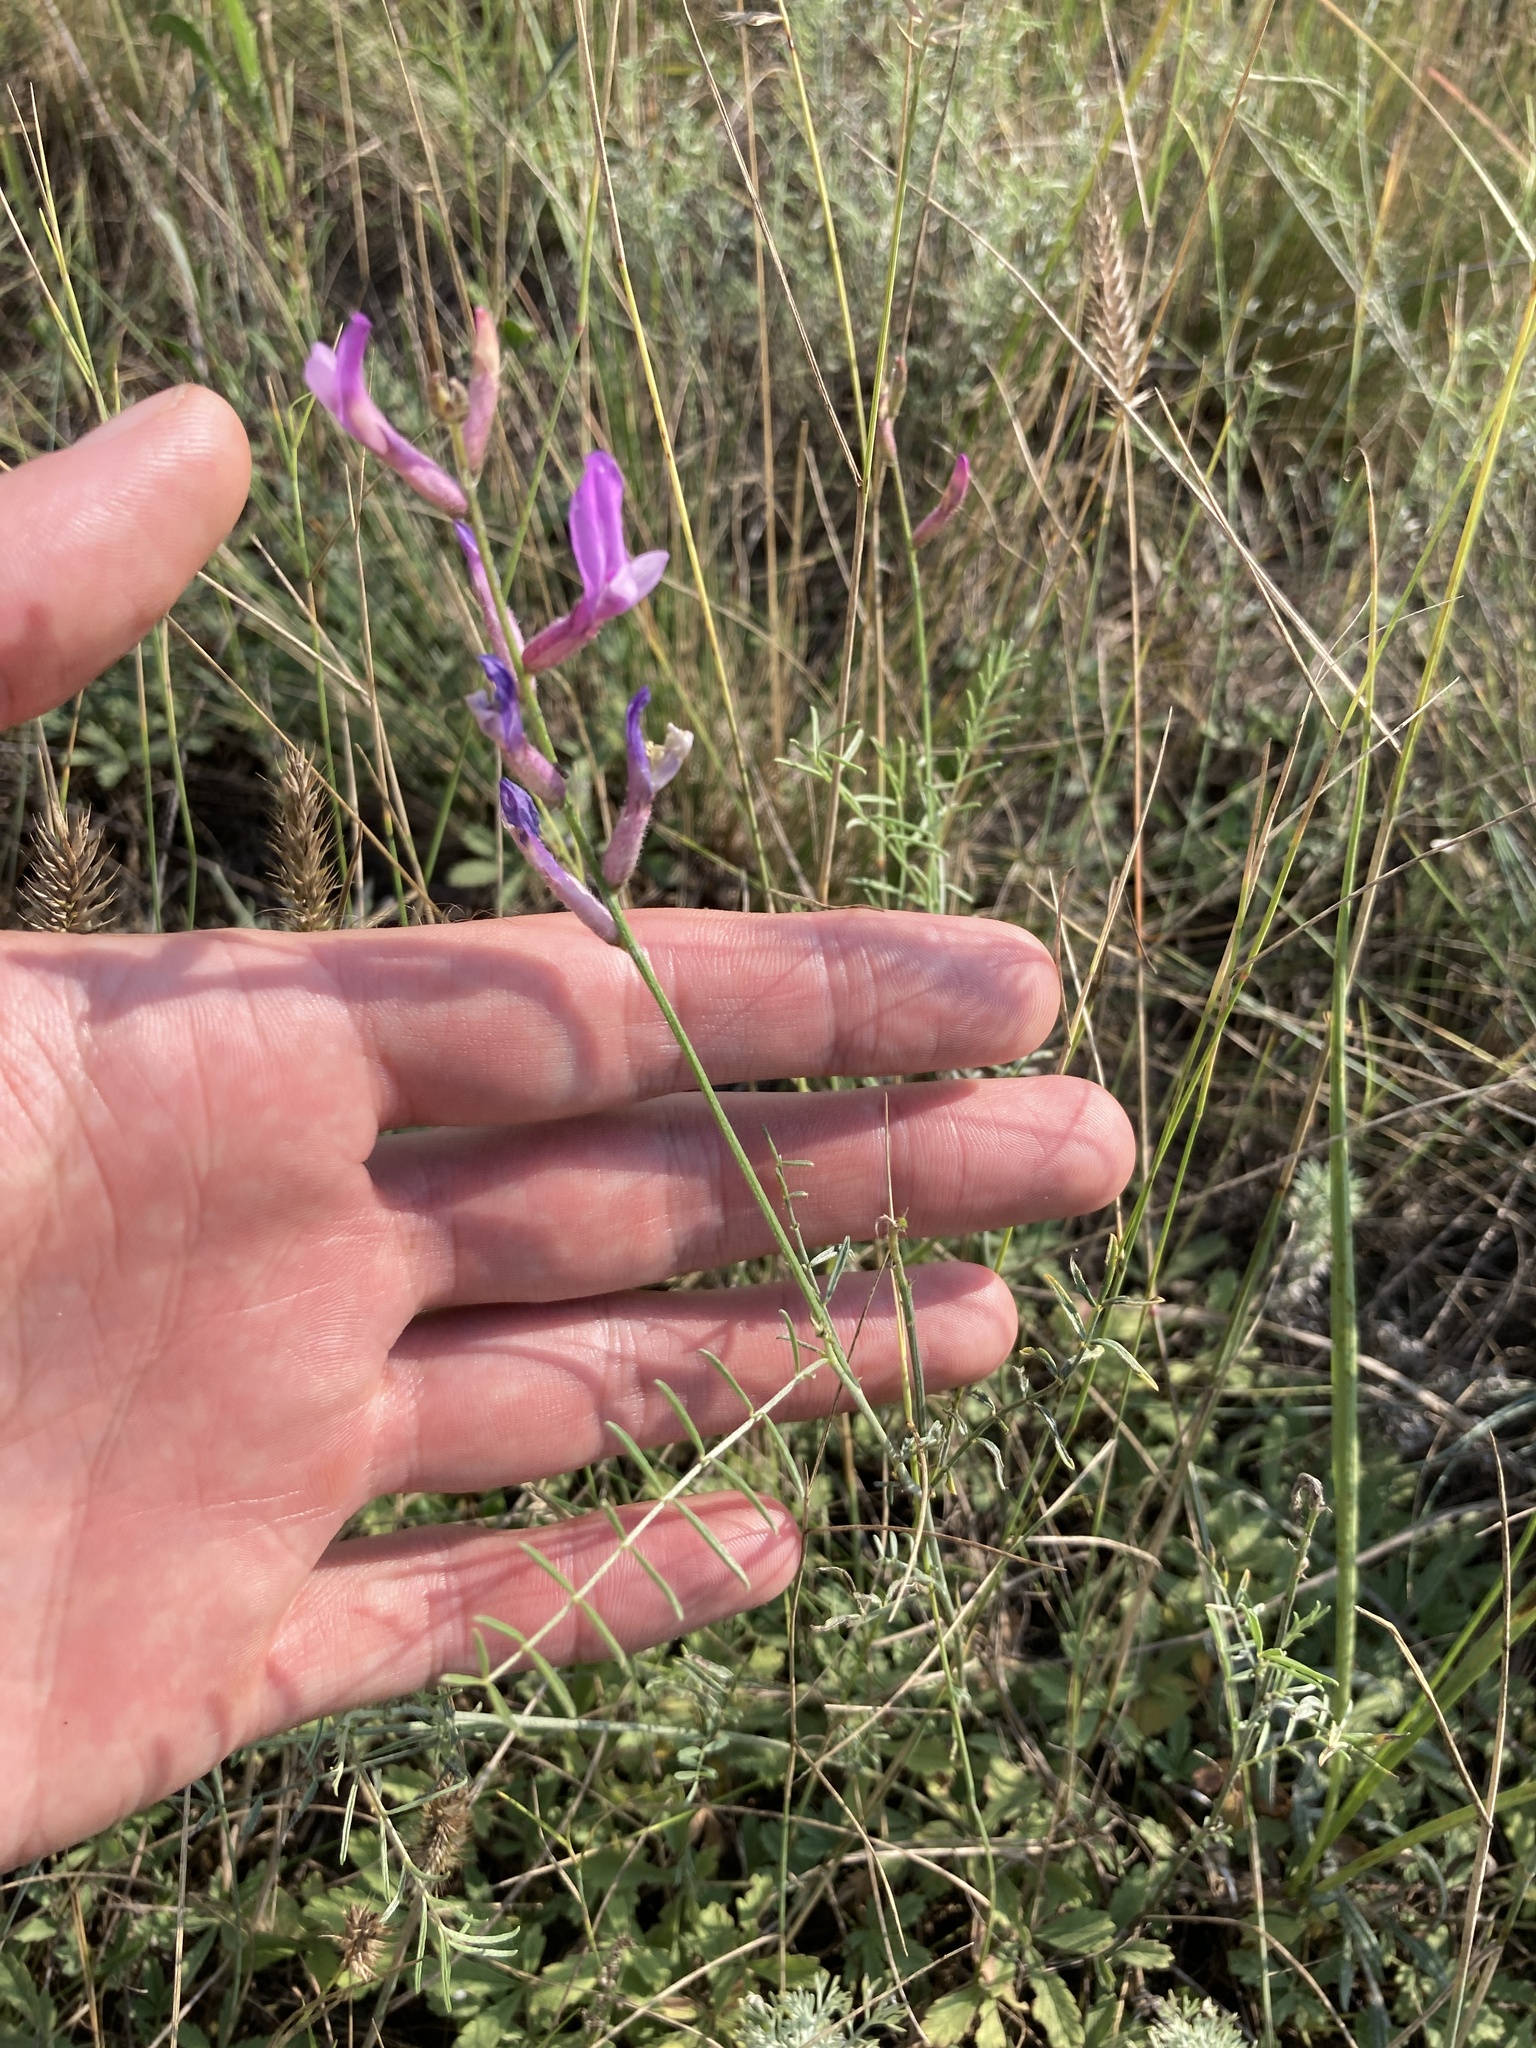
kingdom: Plantae
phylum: Tracheophyta
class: Magnoliopsida
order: Fabales
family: Fabaceae
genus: Astragalus
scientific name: Astragalus varius
